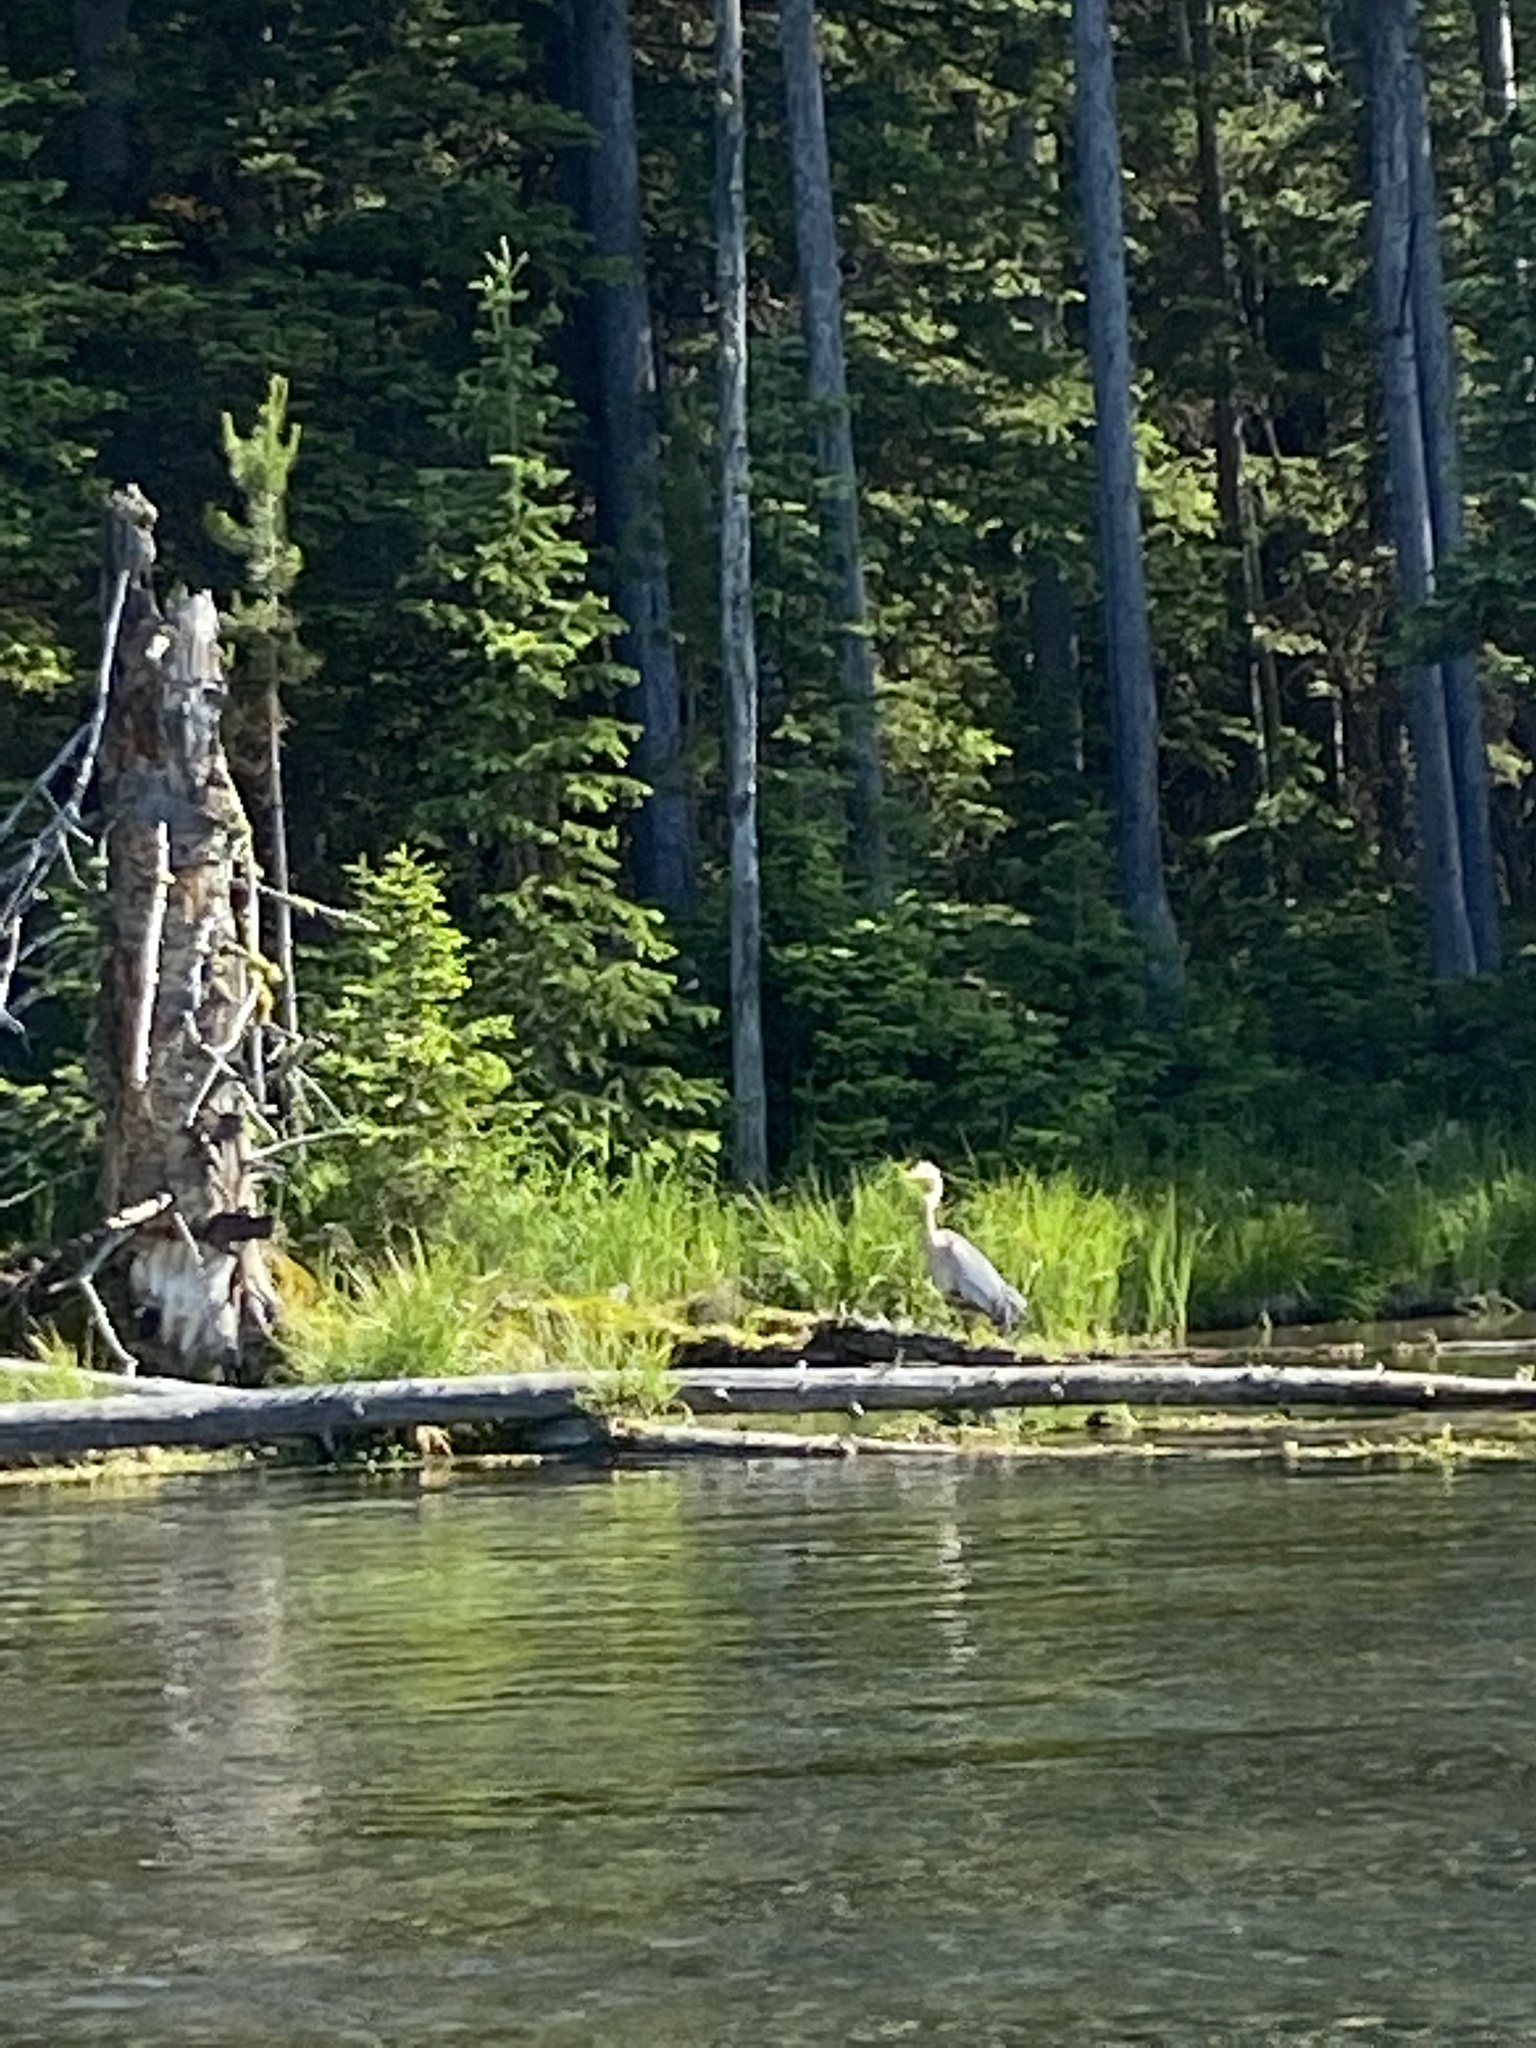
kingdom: Animalia
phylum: Chordata
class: Aves
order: Pelecaniformes
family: Ardeidae
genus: Ardea
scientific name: Ardea herodias
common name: Great blue heron
